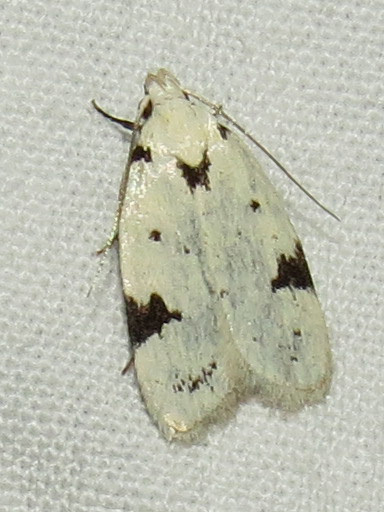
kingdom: Animalia
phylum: Arthropoda
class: Insecta
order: Lepidoptera
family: Oecophoridae
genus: Inga
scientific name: Inga sparsiciliella
